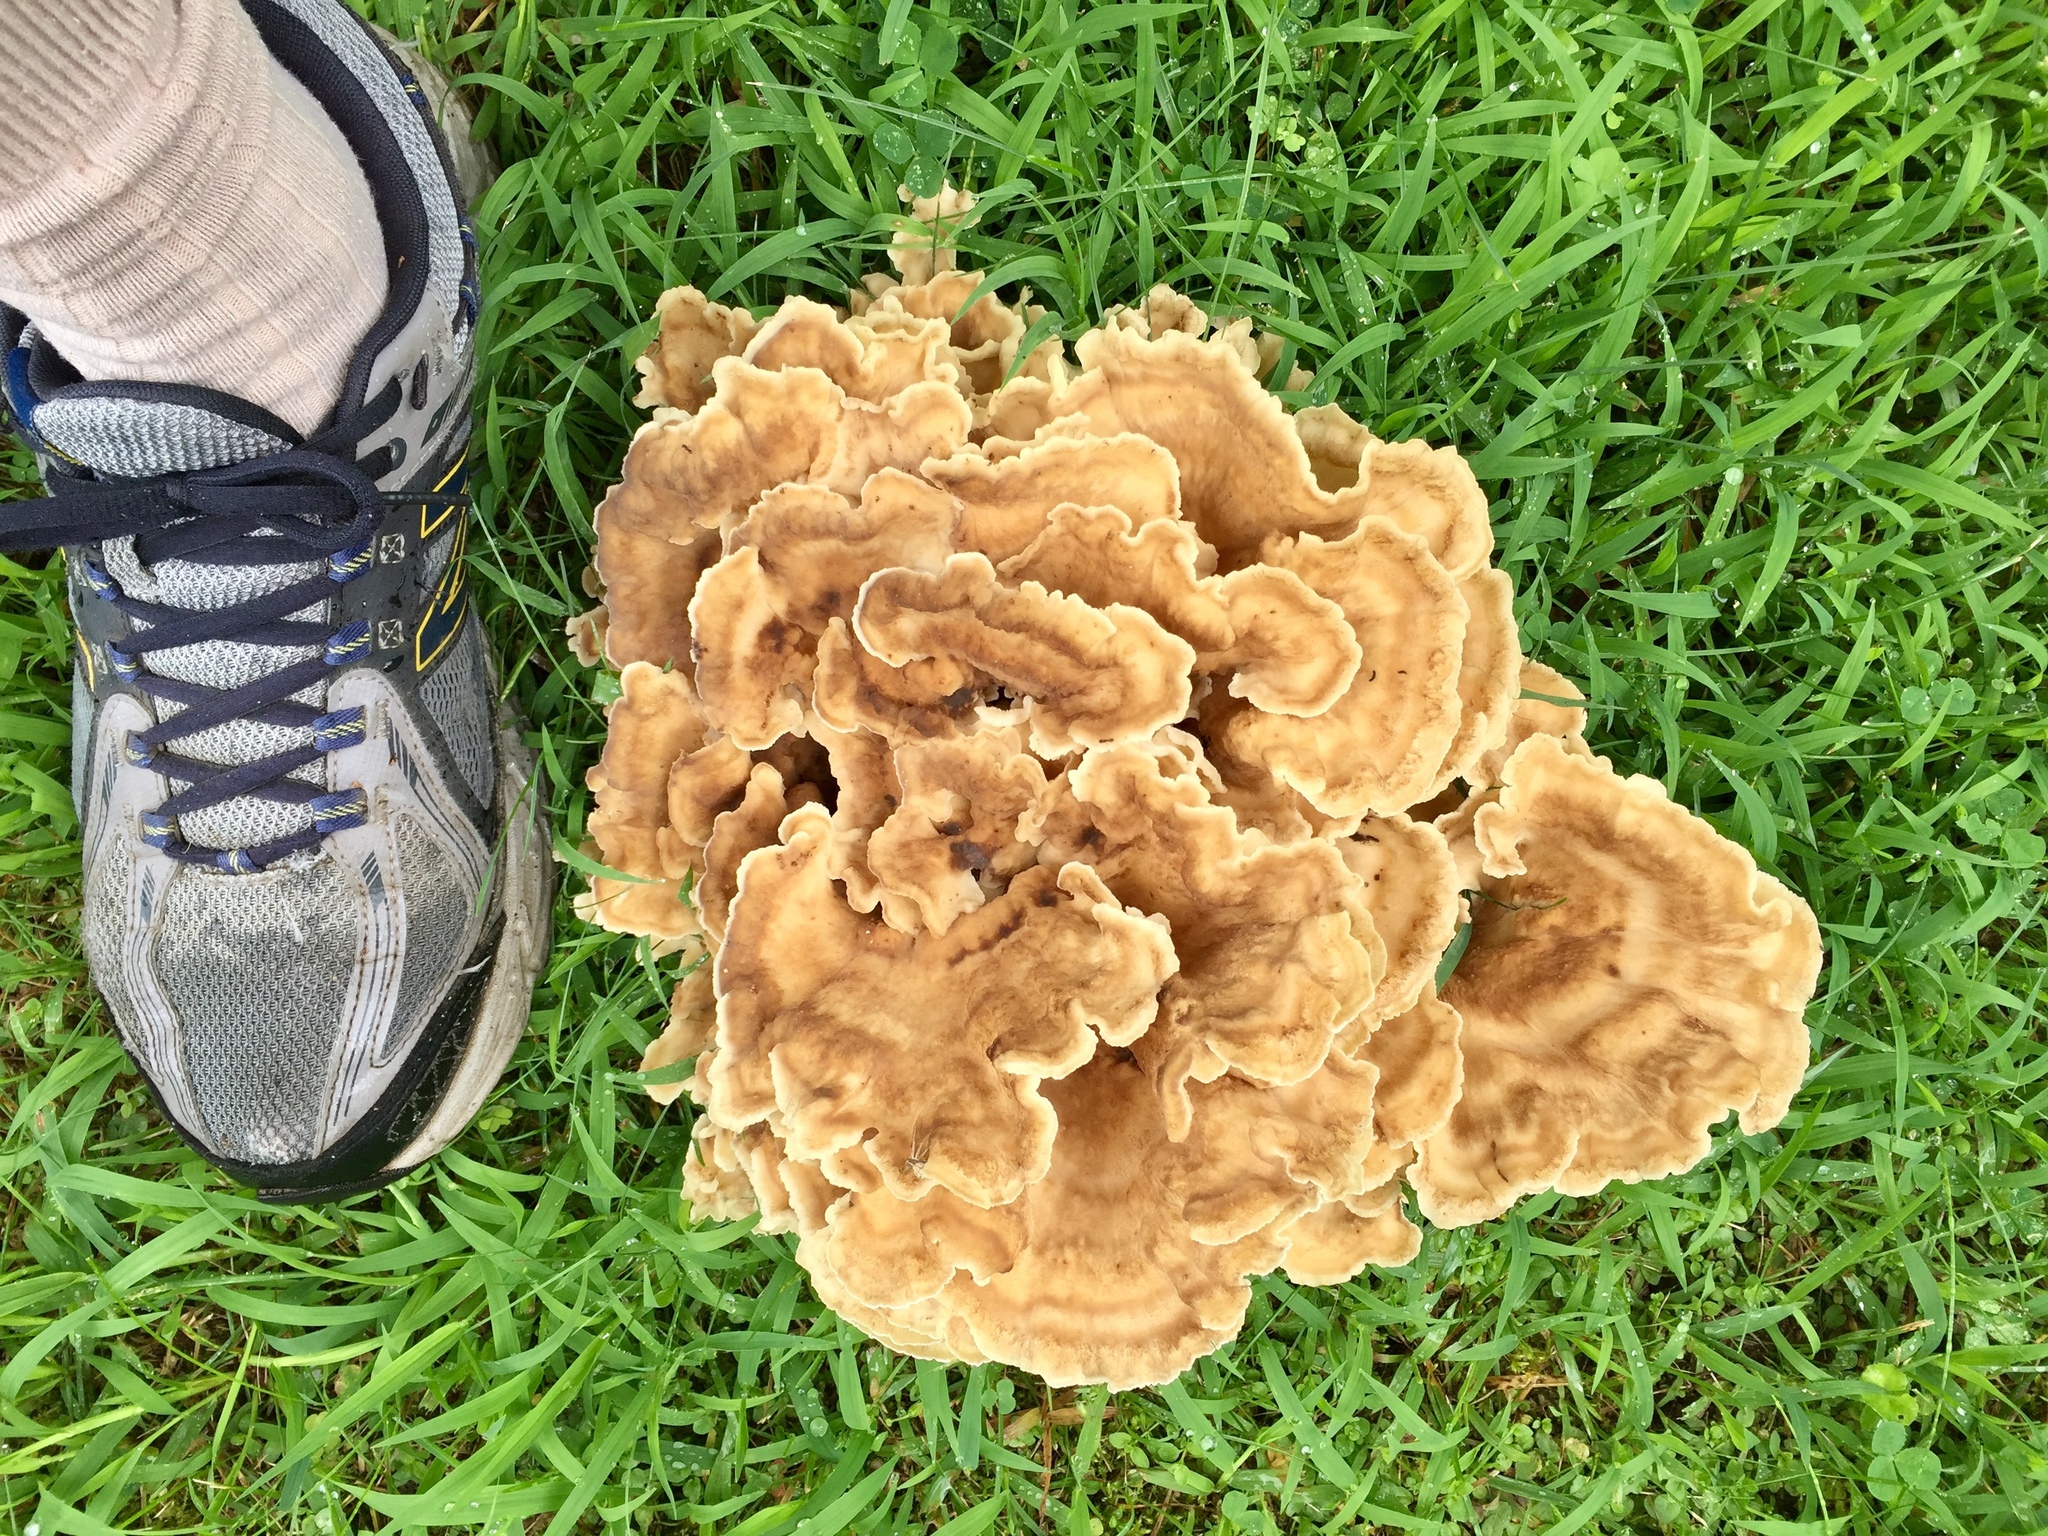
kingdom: Fungi
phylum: Basidiomycota
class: Agaricomycetes
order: Polyporales
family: Meripilaceae
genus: Meripilus
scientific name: Meripilus sumstinei
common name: Black-staining polypore
